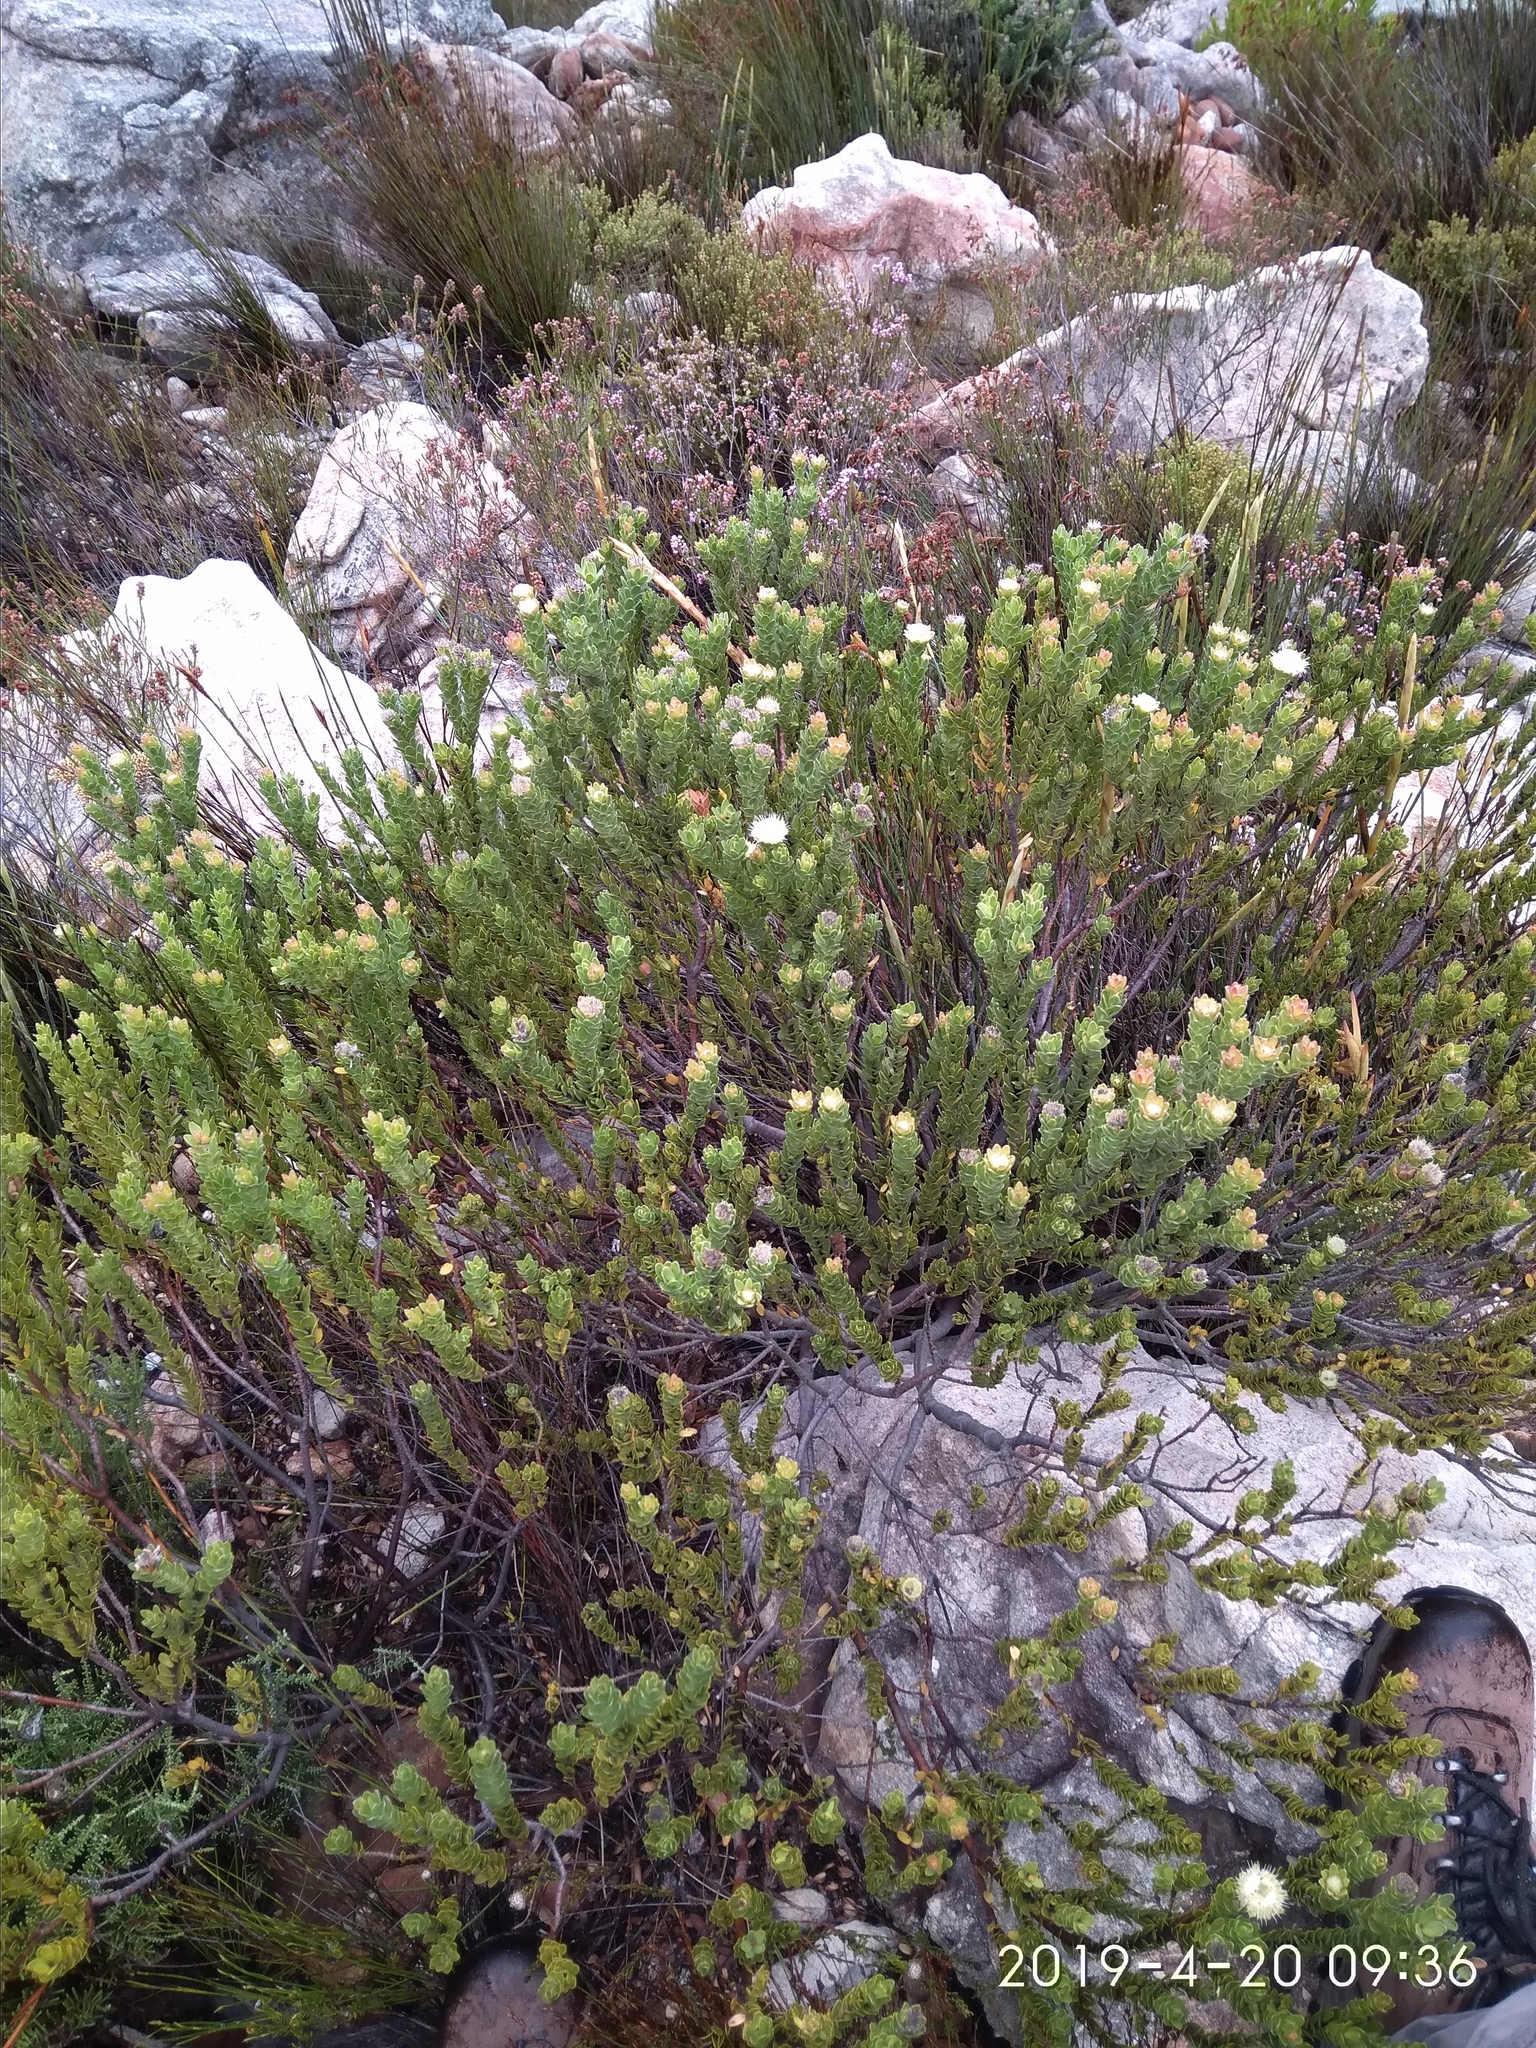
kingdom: Plantae
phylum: Tracheophyta
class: Magnoliopsida
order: Proteales
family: Proteaceae
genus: Diastella
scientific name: Diastella thymelaeoides
